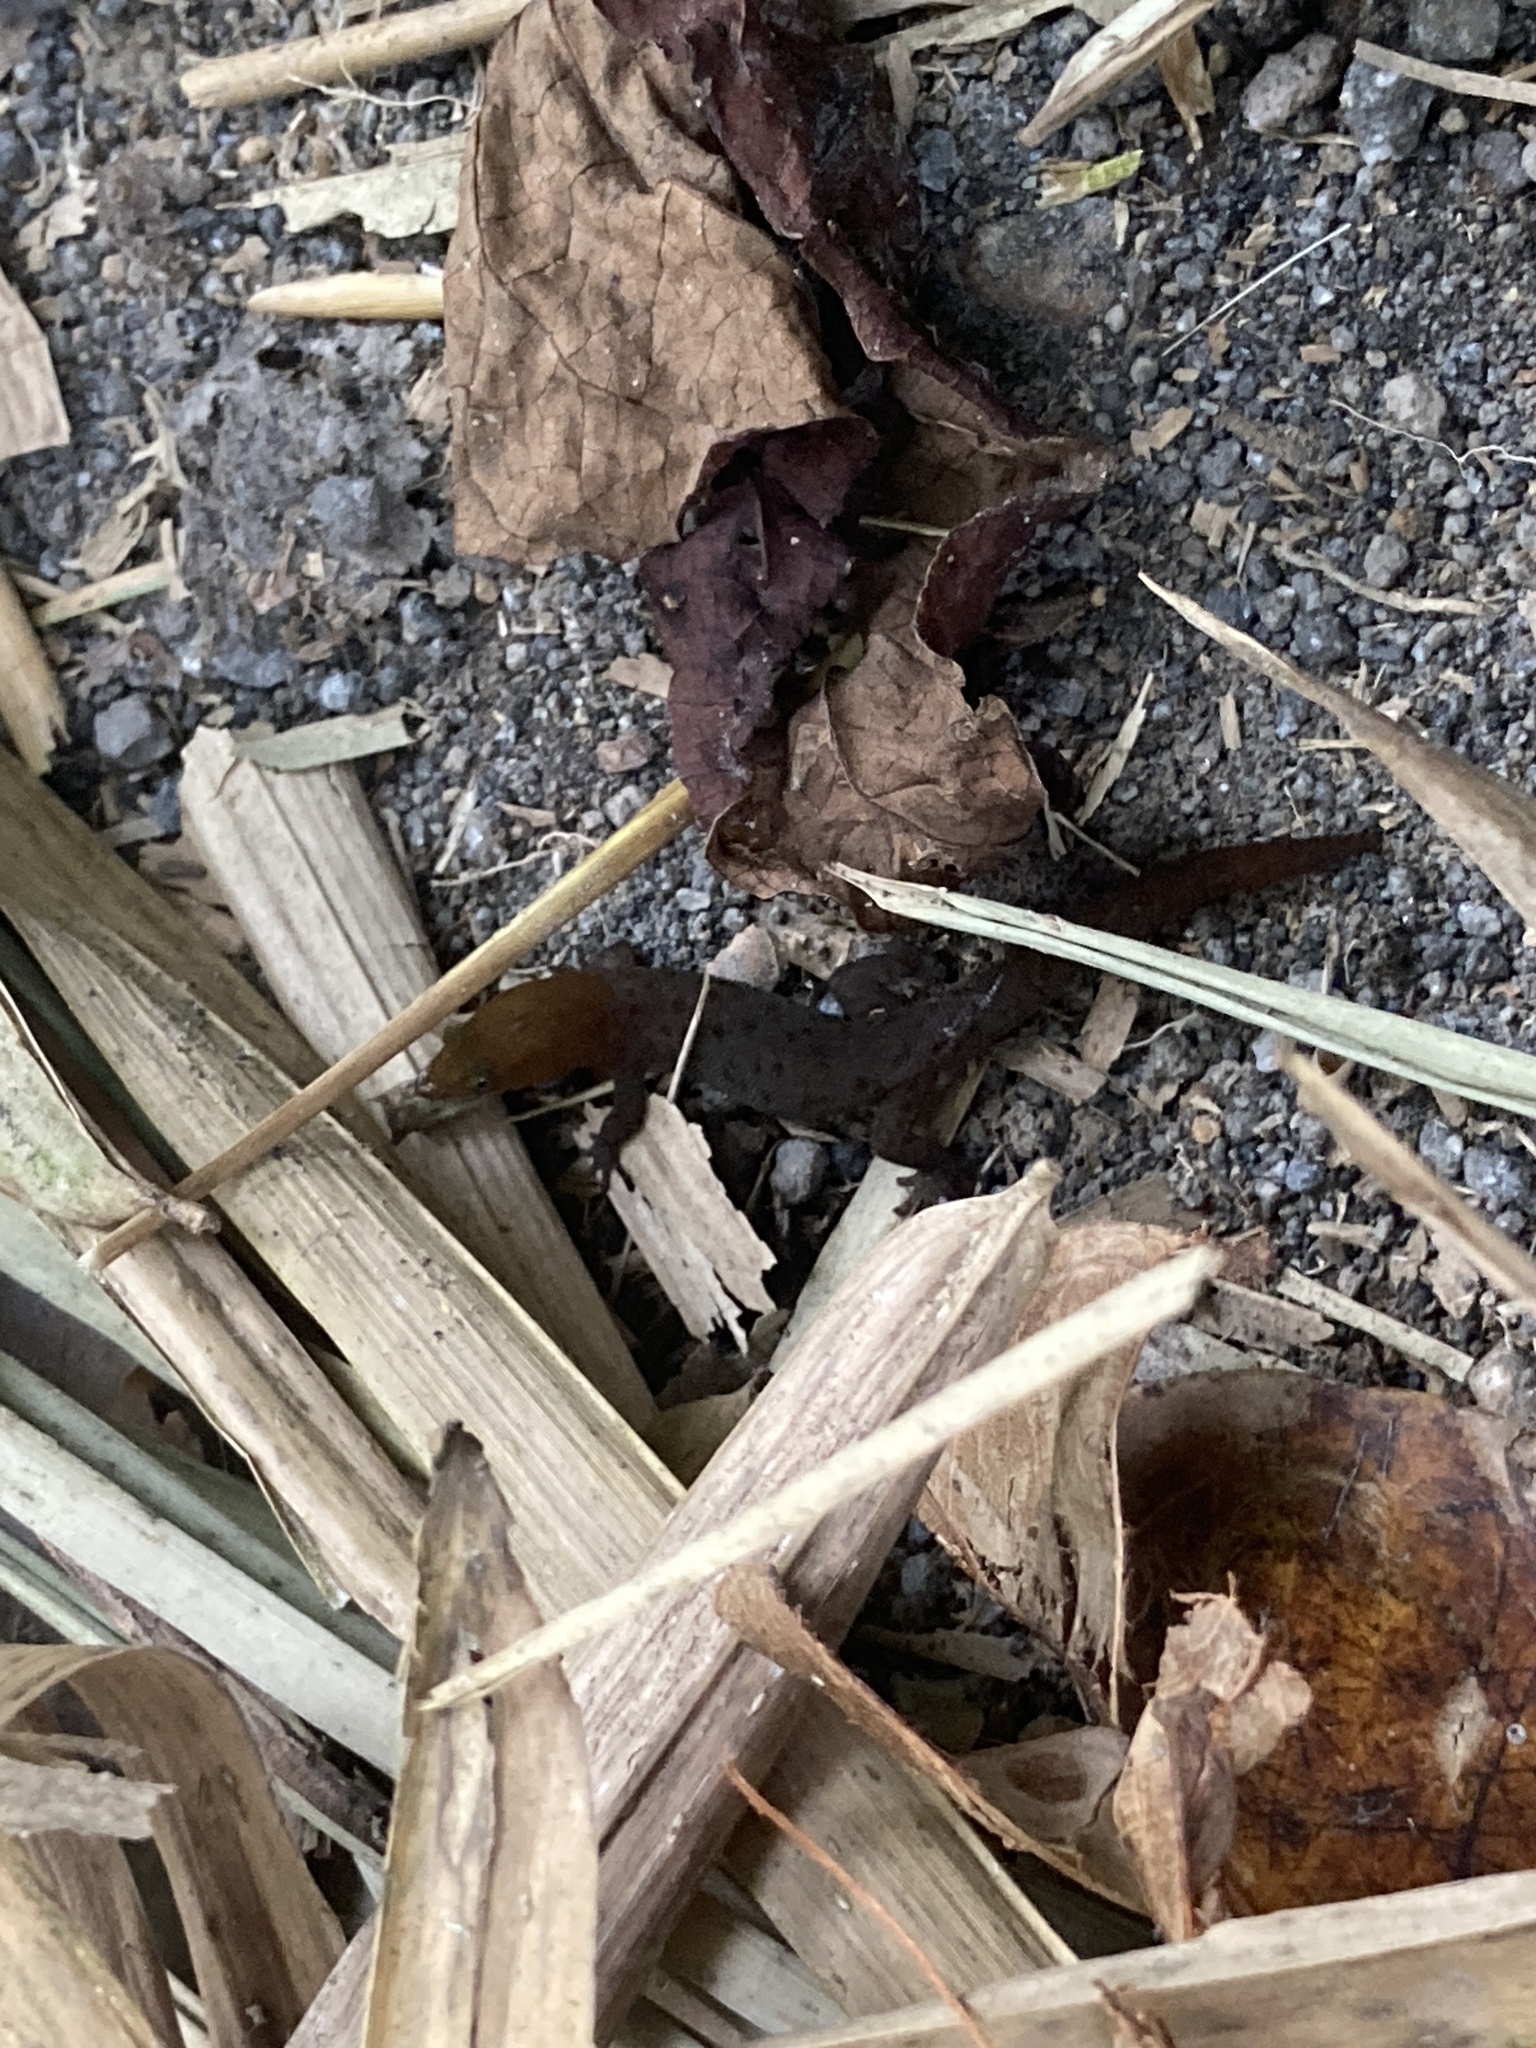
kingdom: Animalia
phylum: Chordata
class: Squamata
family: Sphaerodactylidae
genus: Sphaerodactylus
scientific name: Sphaerodactylus vincenti
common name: Central lesser antillean sphaero
